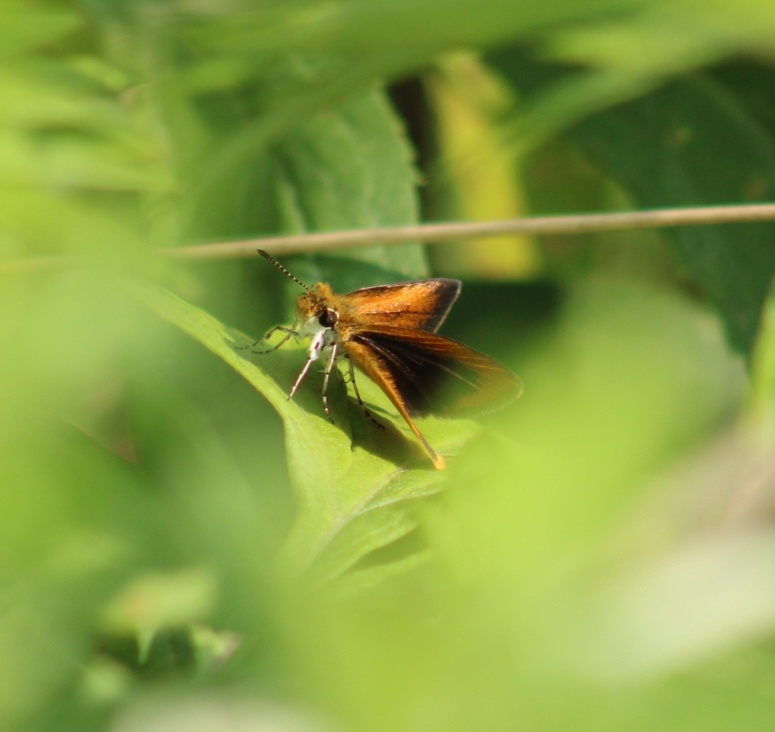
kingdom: Animalia
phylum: Arthropoda
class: Insecta
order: Lepidoptera
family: Hesperiidae
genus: Ancyloxypha
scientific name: Ancyloxypha numitor
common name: Least skipper
